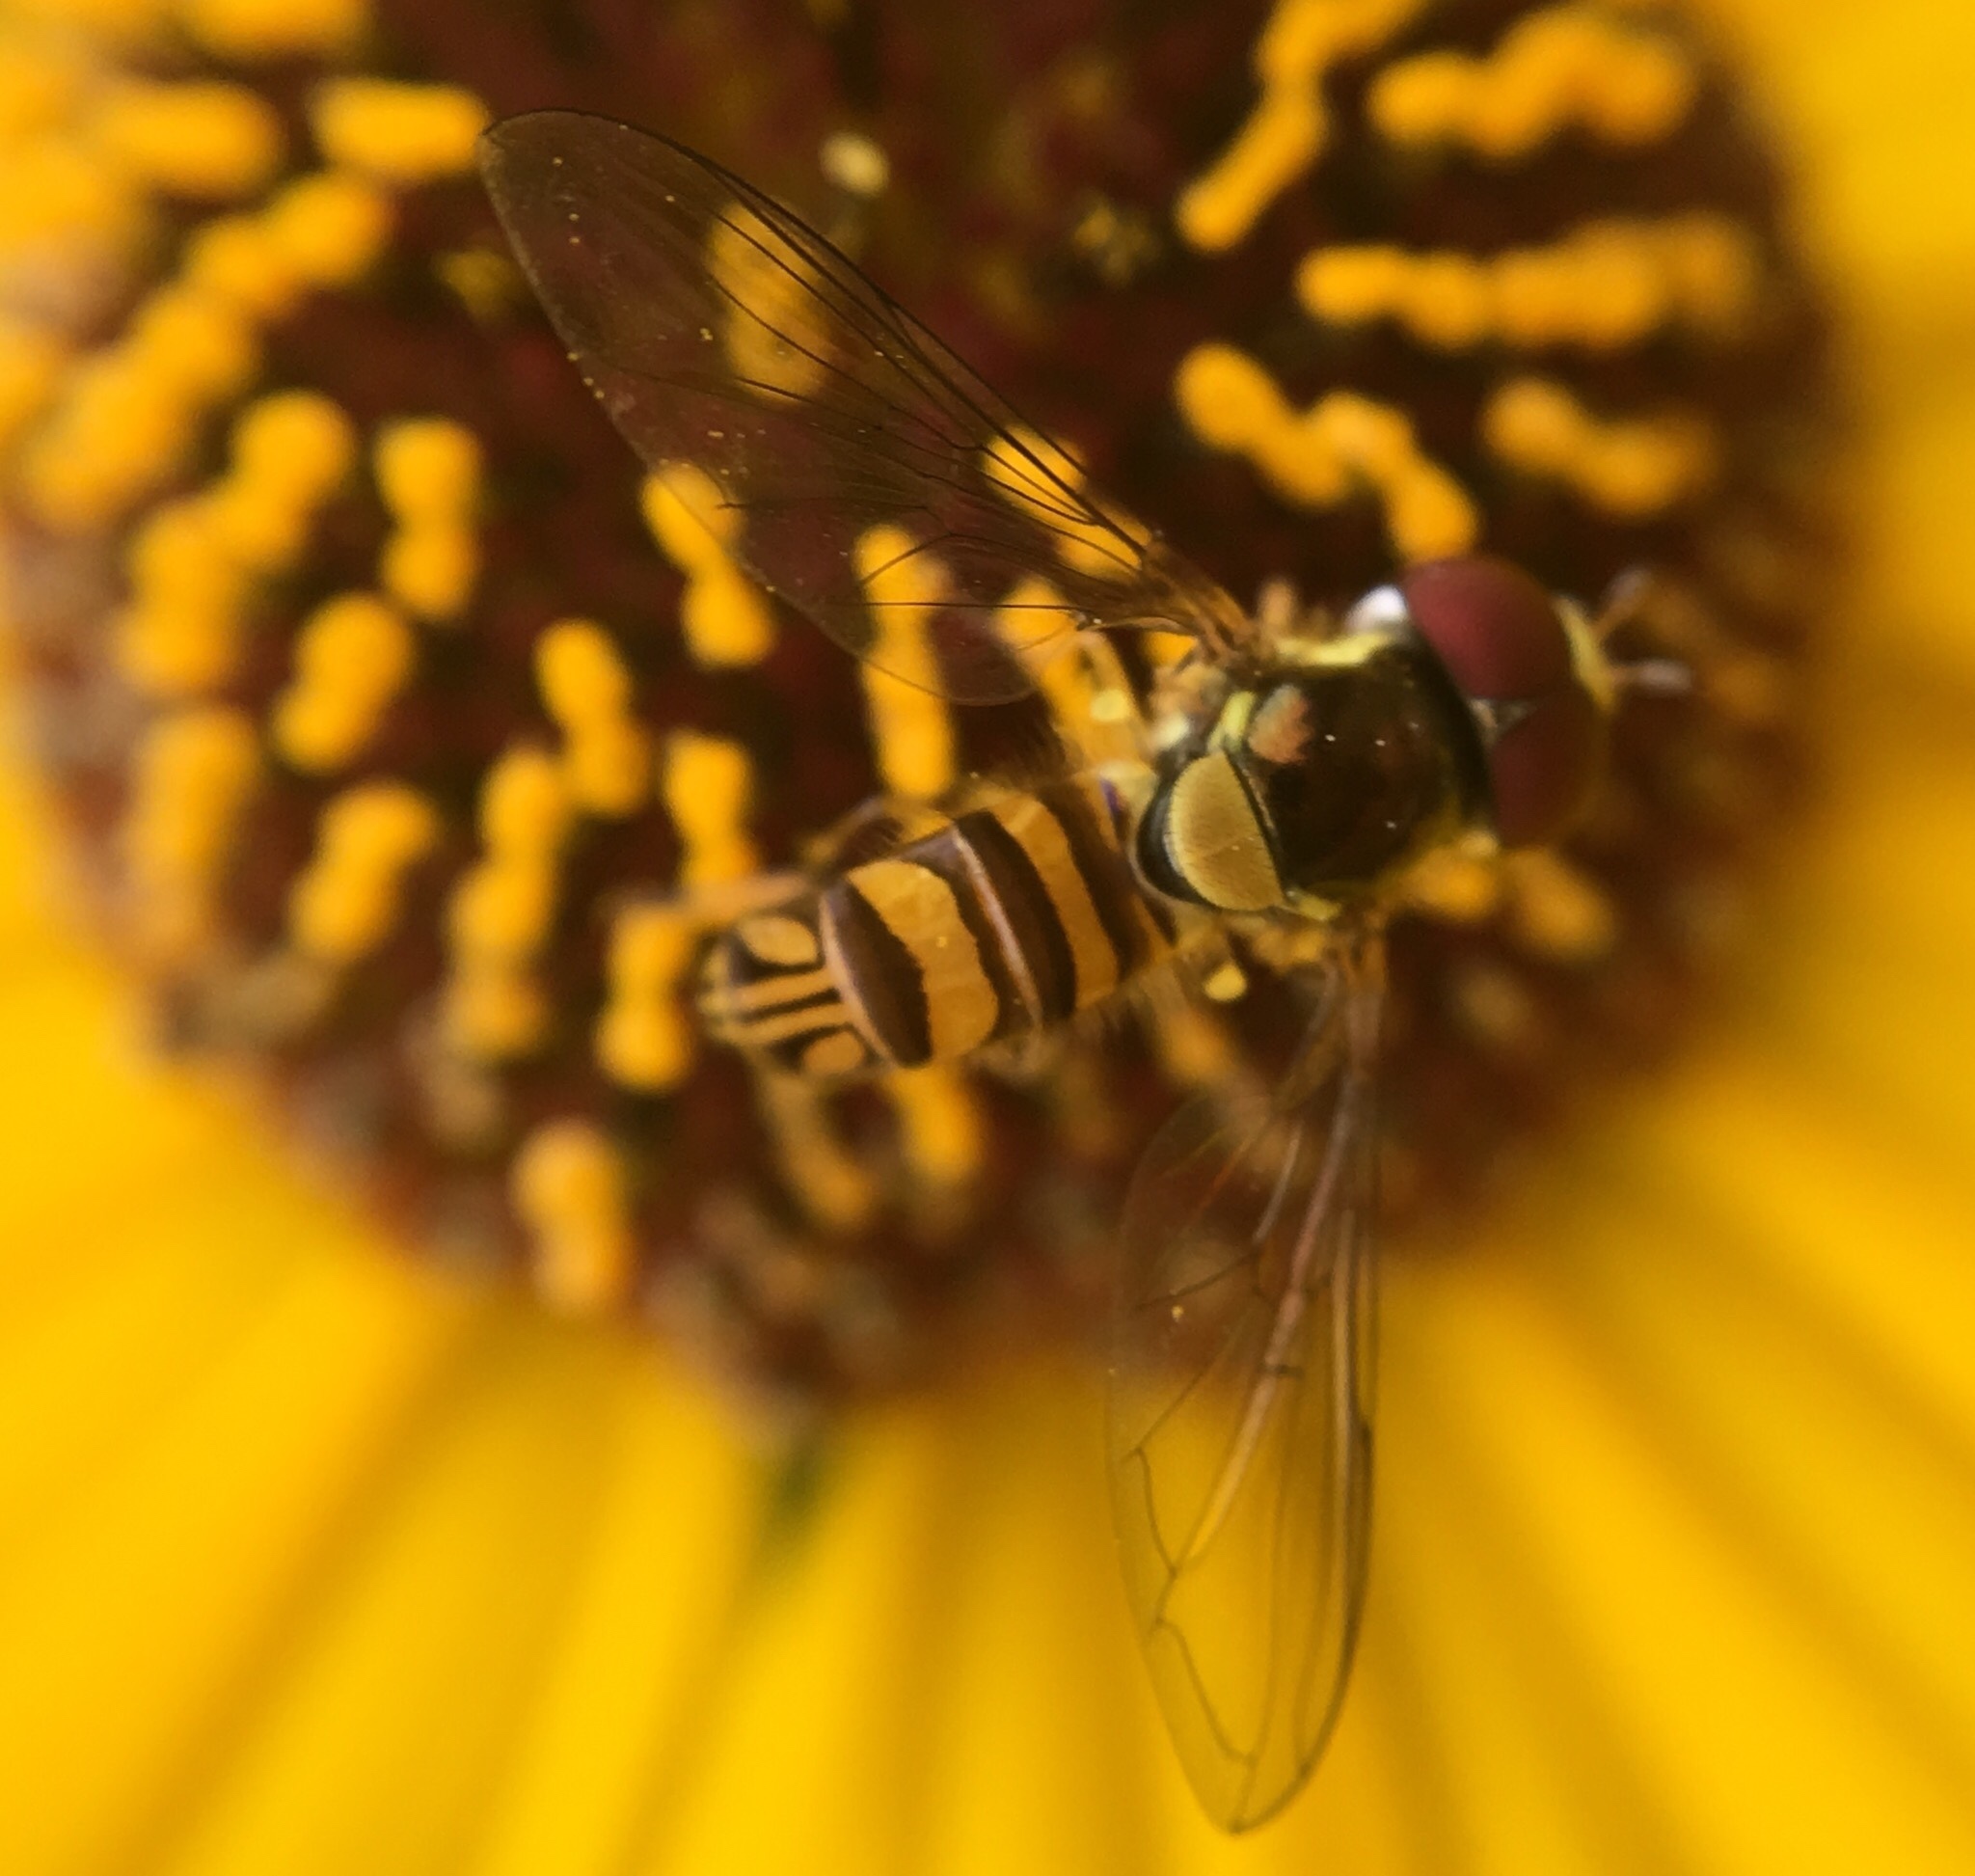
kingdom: Animalia
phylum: Arthropoda
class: Insecta
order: Diptera
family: Syrphidae
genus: Allograpta
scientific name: Allograpta obliqua
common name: Common oblique syrphid
